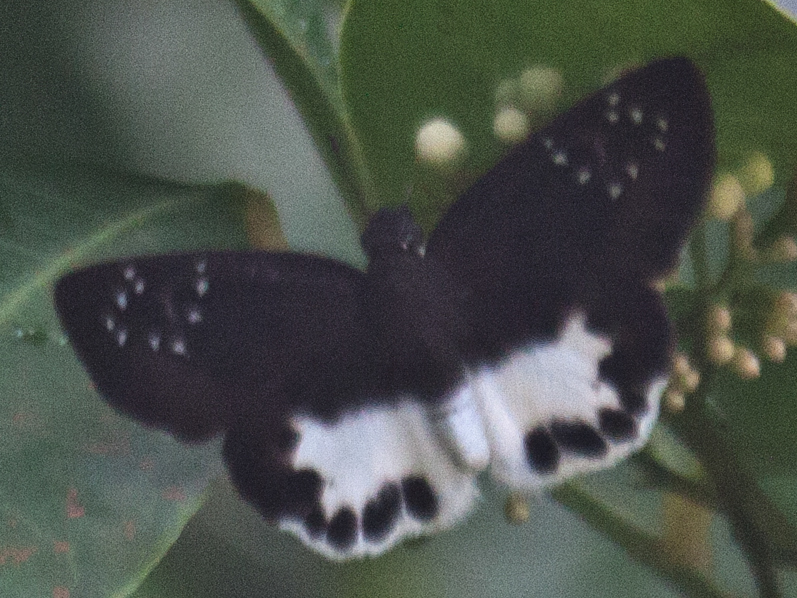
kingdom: Animalia
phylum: Arthropoda
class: Insecta
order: Lepidoptera
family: Hesperiidae
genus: Tagiades
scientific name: Tagiades litigiosa
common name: Water snow flat
